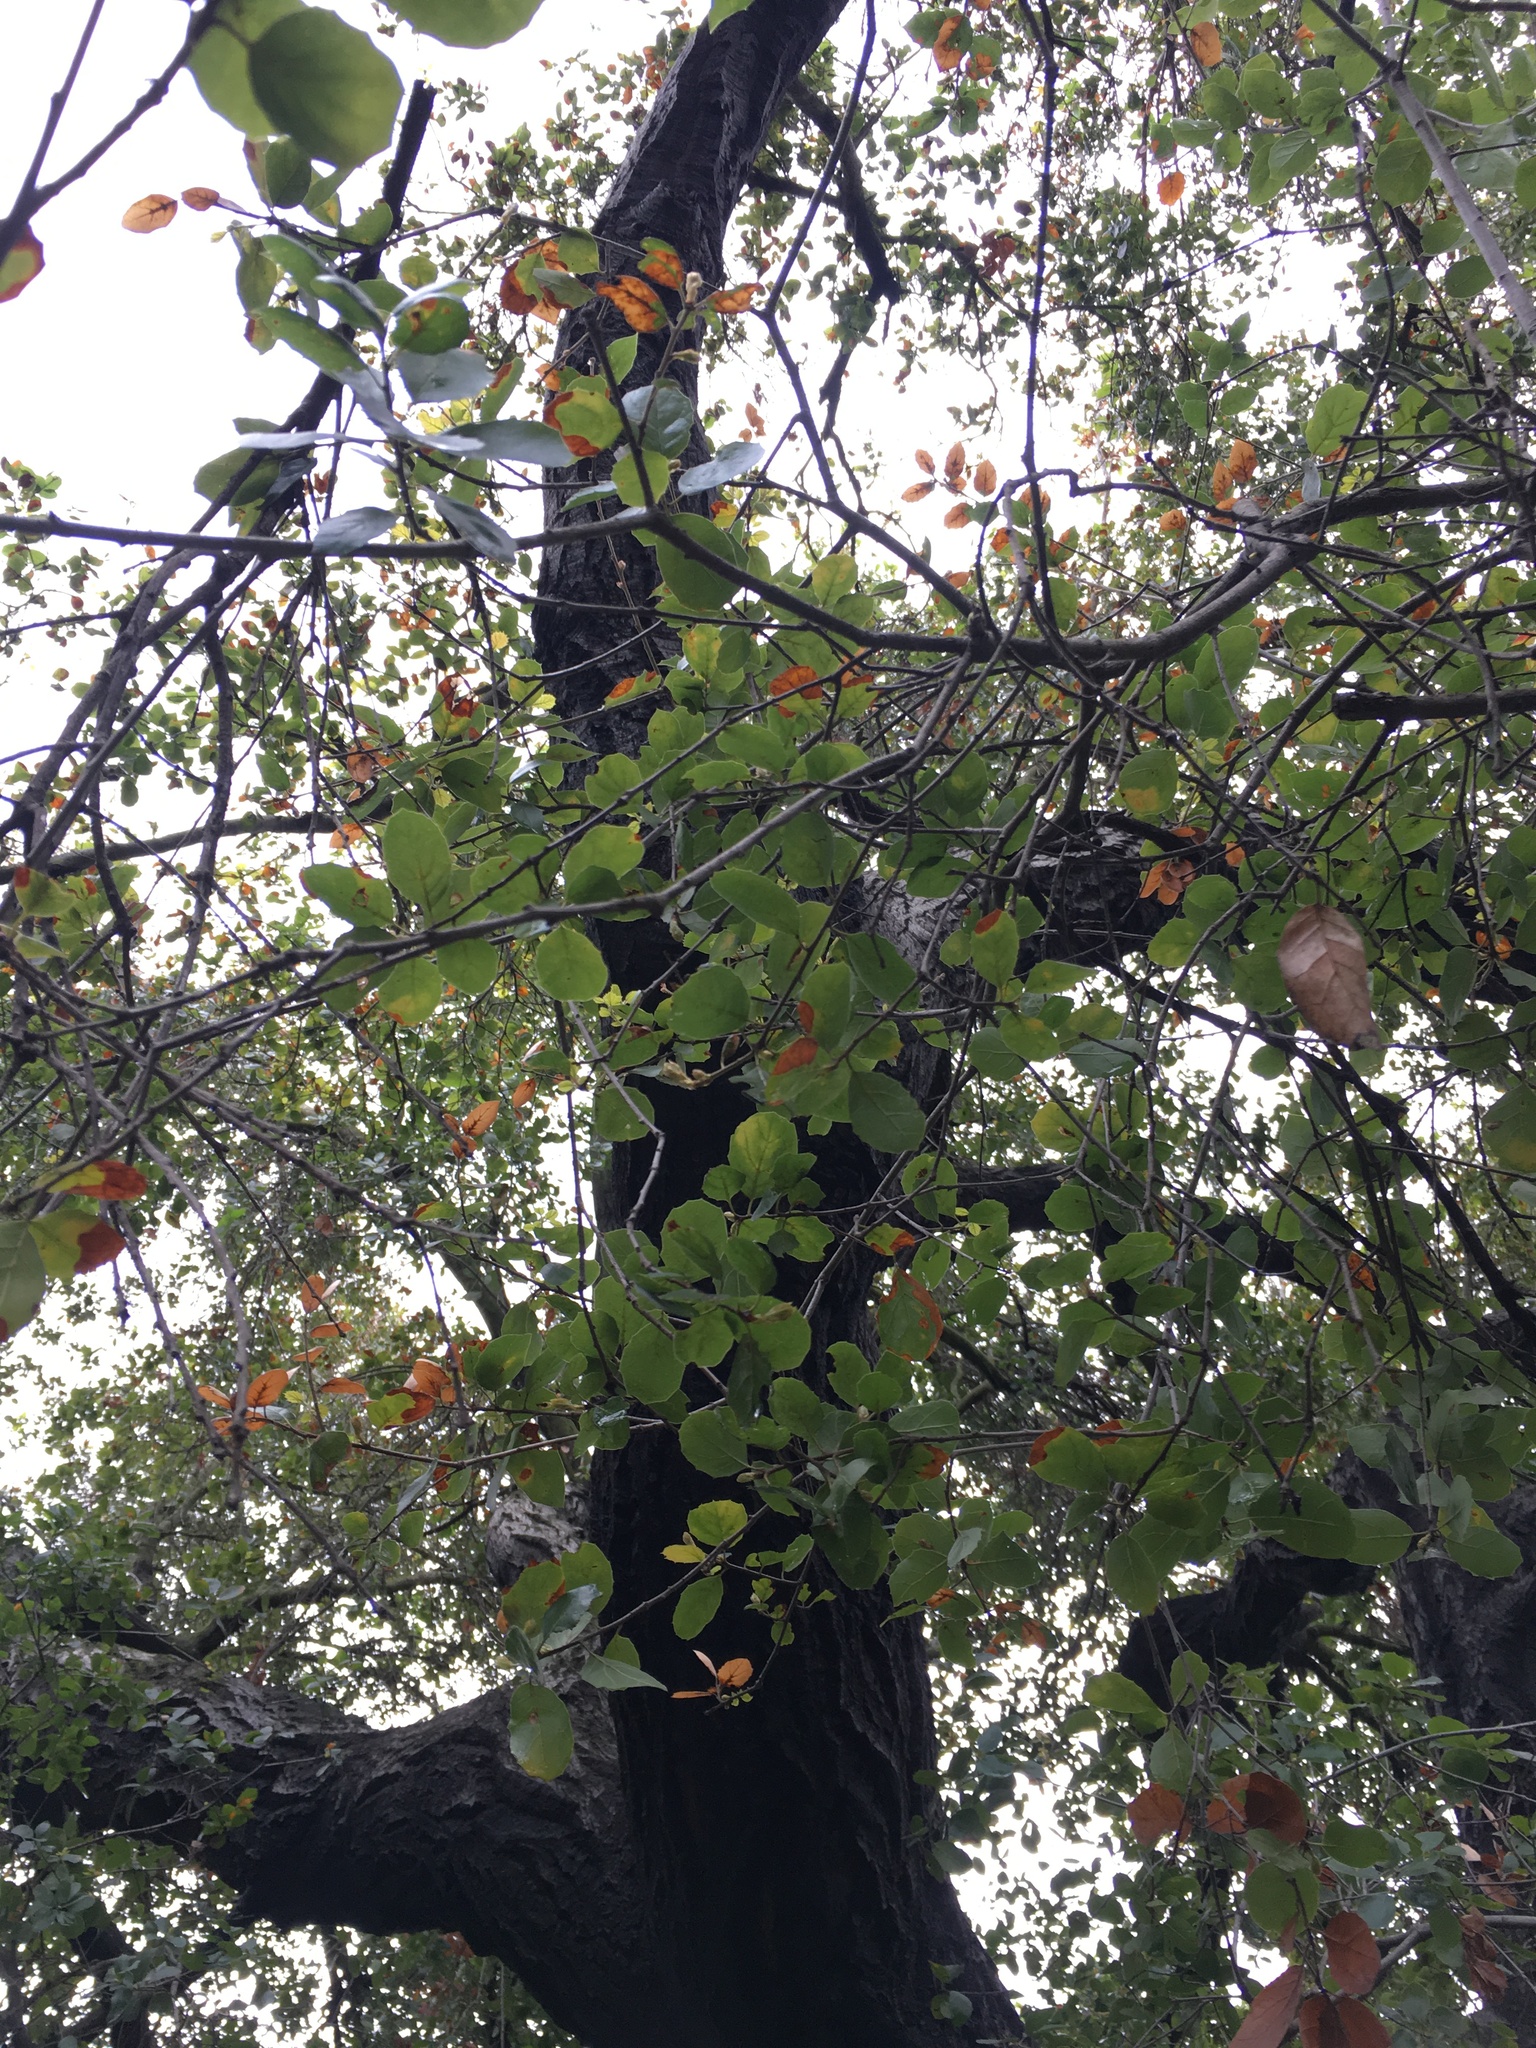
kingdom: Plantae
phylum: Tracheophyta
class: Magnoliopsida
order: Fagales
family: Fagaceae
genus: Quercus
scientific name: Quercus agrifolia
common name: California live oak
